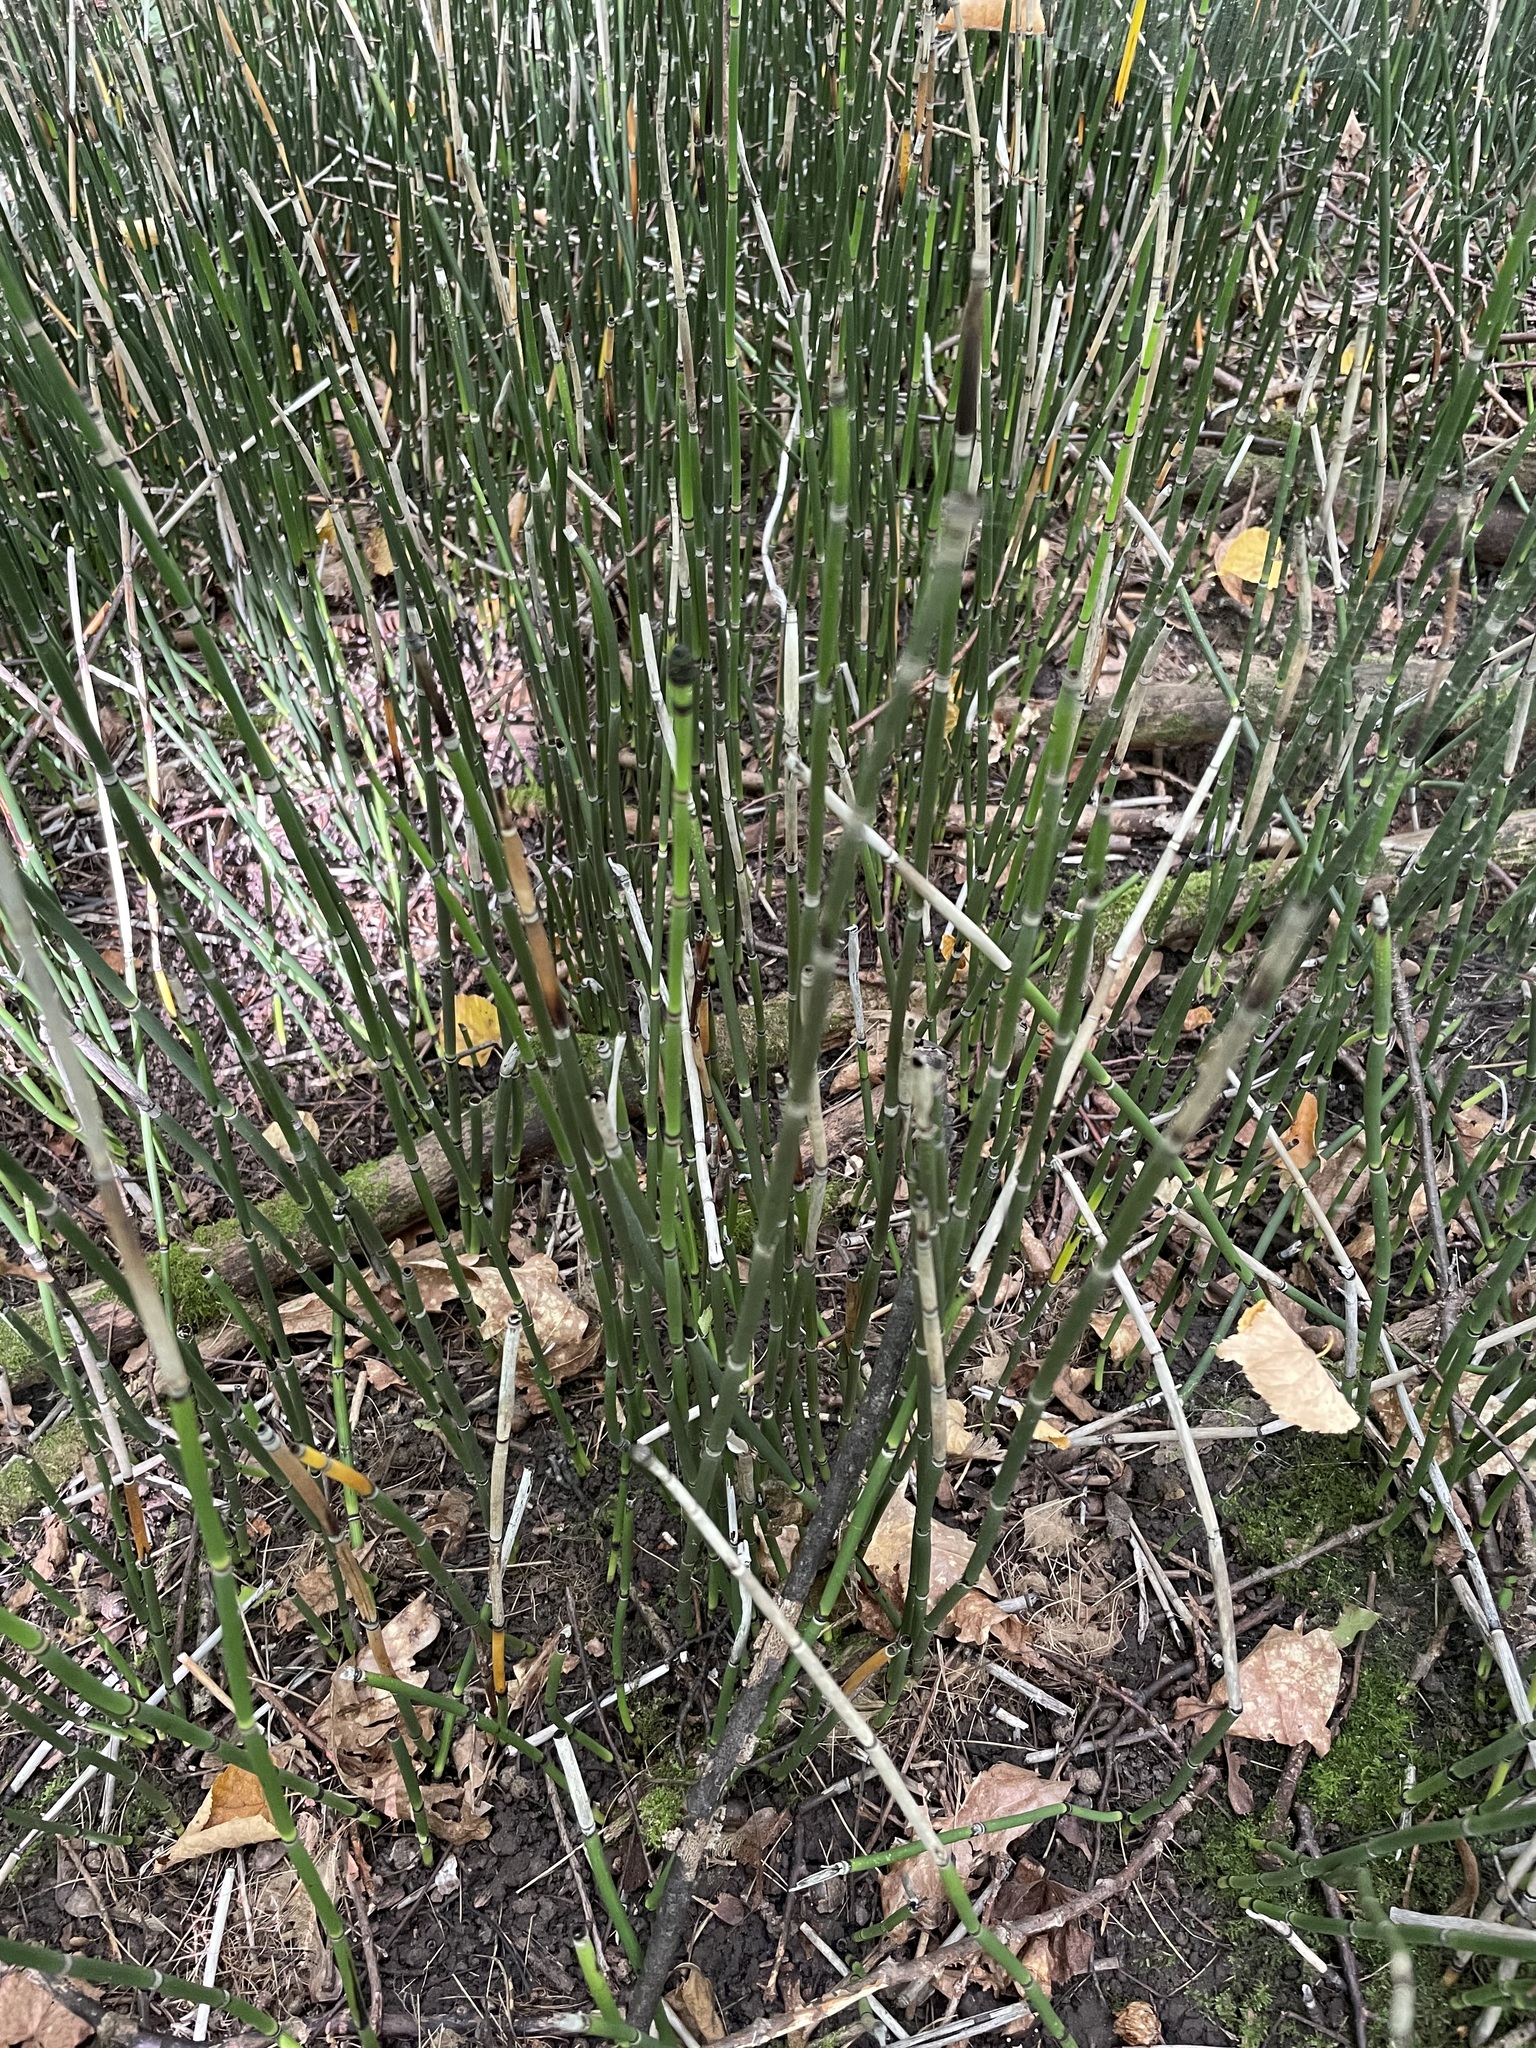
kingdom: Plantae
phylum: Tracheophyta
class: Polypodiopsida
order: Equisetales
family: Equisetaceae
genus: Equisetum
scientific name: Equisetum hyemale
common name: Rough horsetail
